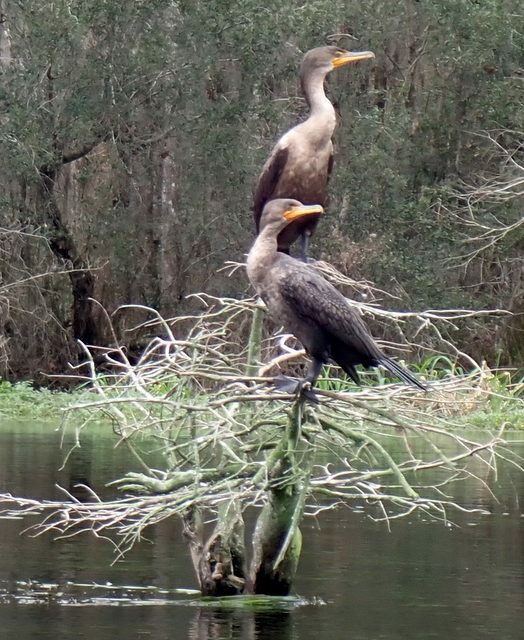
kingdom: Animalia
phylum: Chordata
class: Aves
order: Suliformes
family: Phalacrocoracidae
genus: Phalacrocorax
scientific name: Phalacrocorax auritus
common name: Double-crested cormorant
